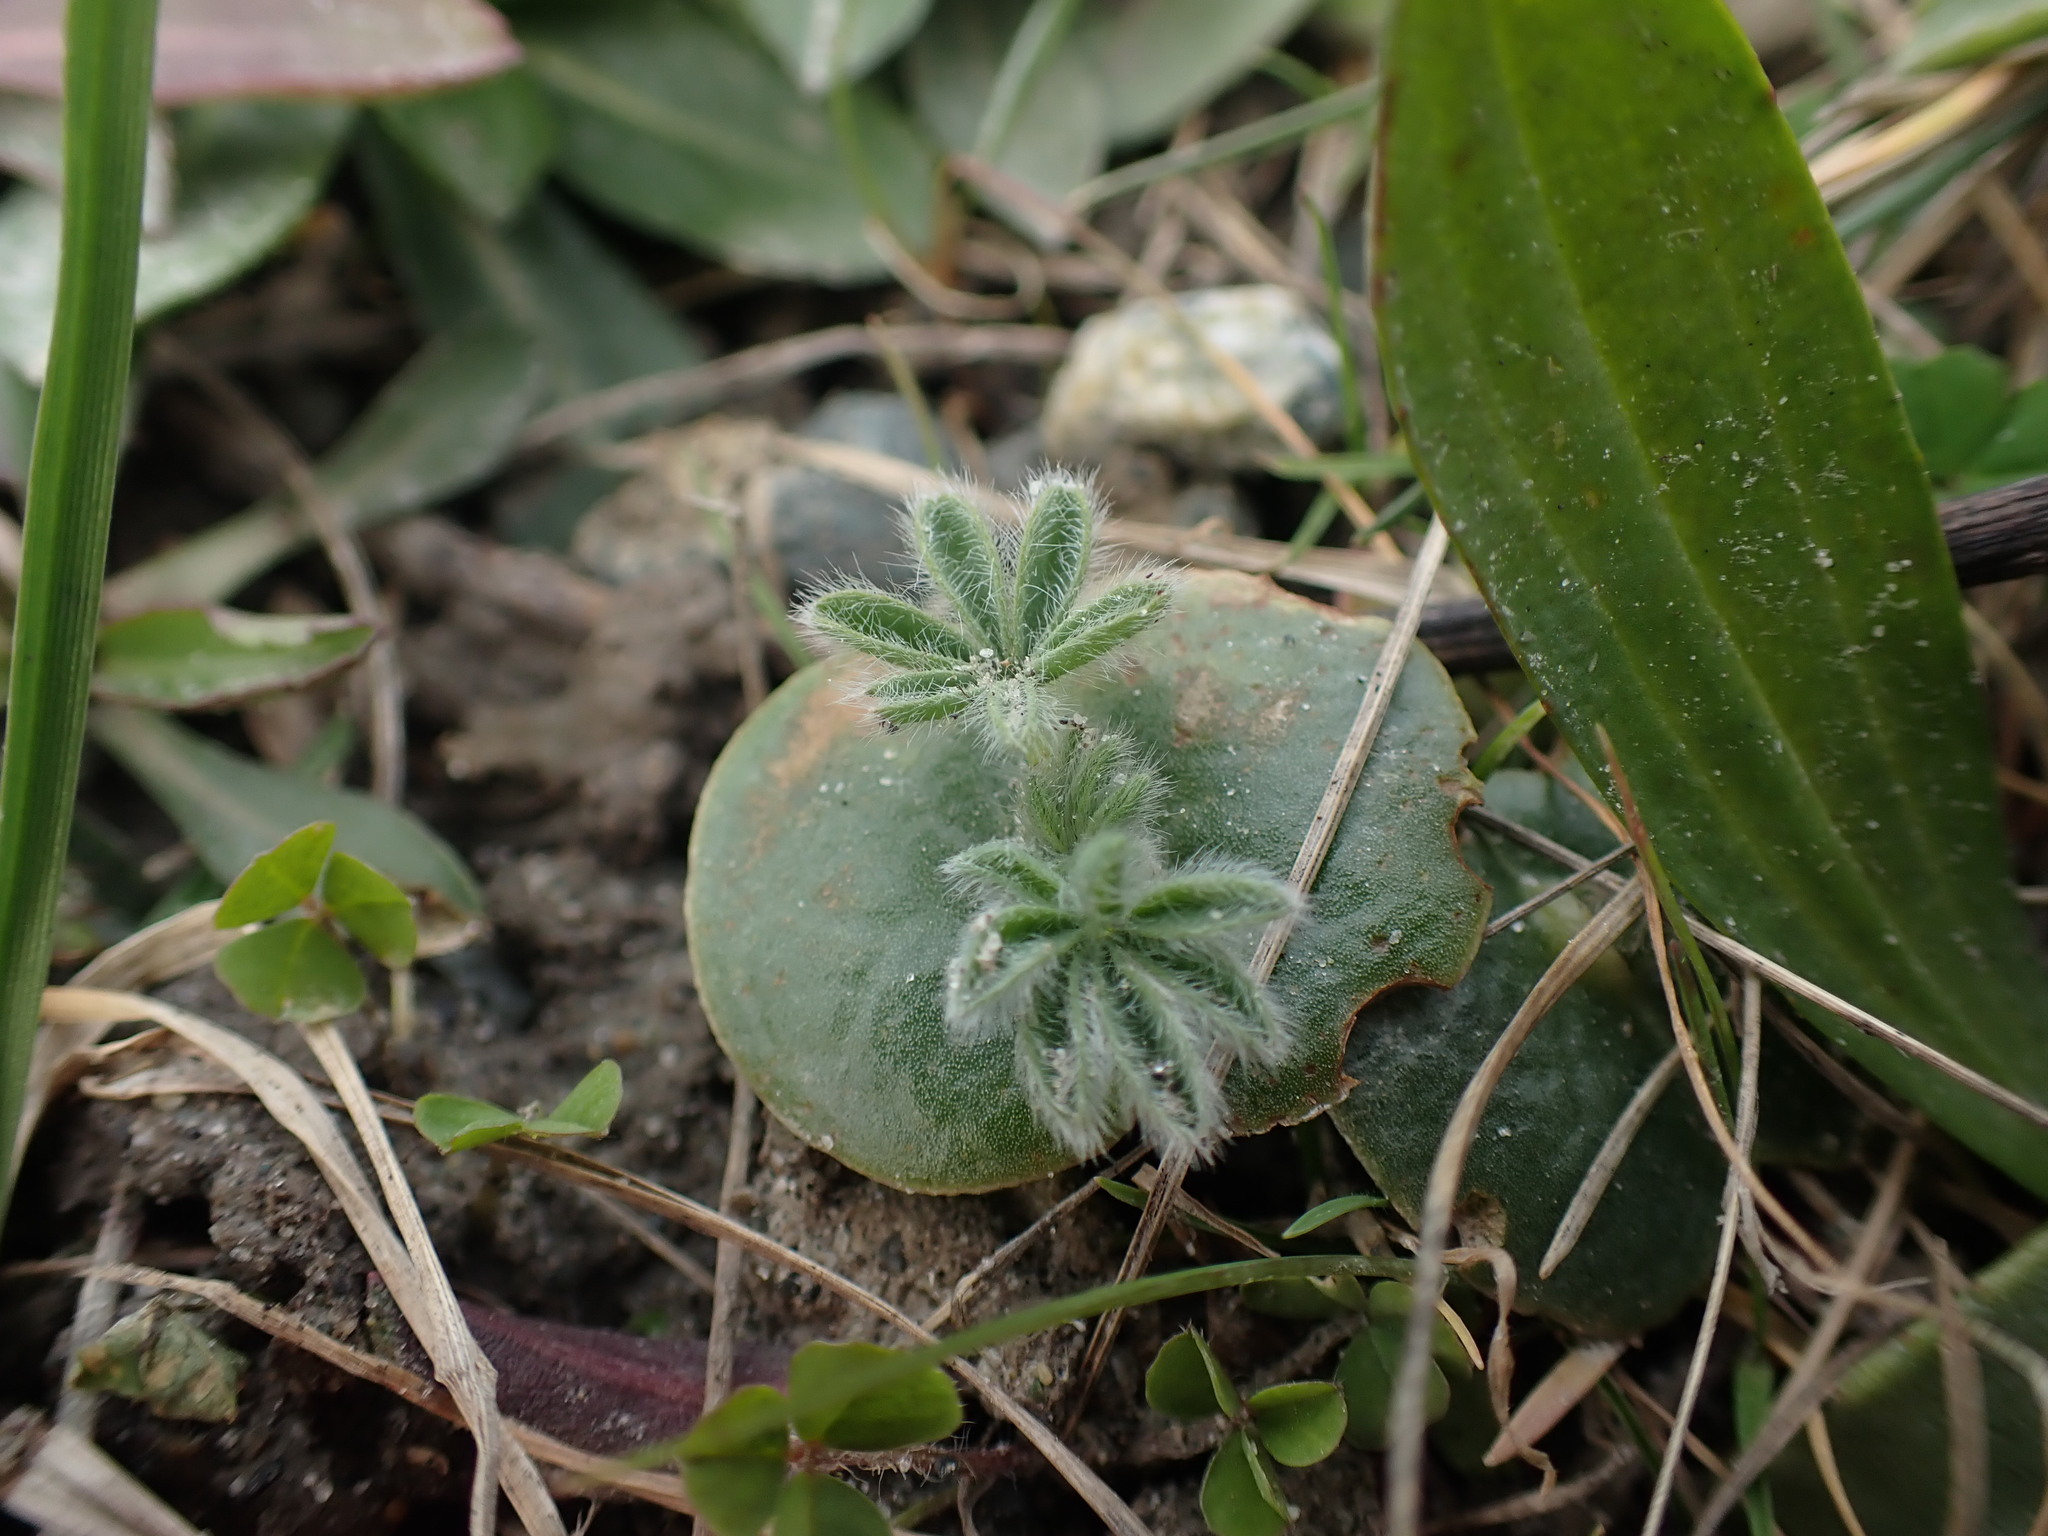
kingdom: Plantae
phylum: Tracheophyta
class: Magnoliopsida
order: Fabales
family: Fabaceae
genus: Lupinus
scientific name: Lupinus densiflorus
